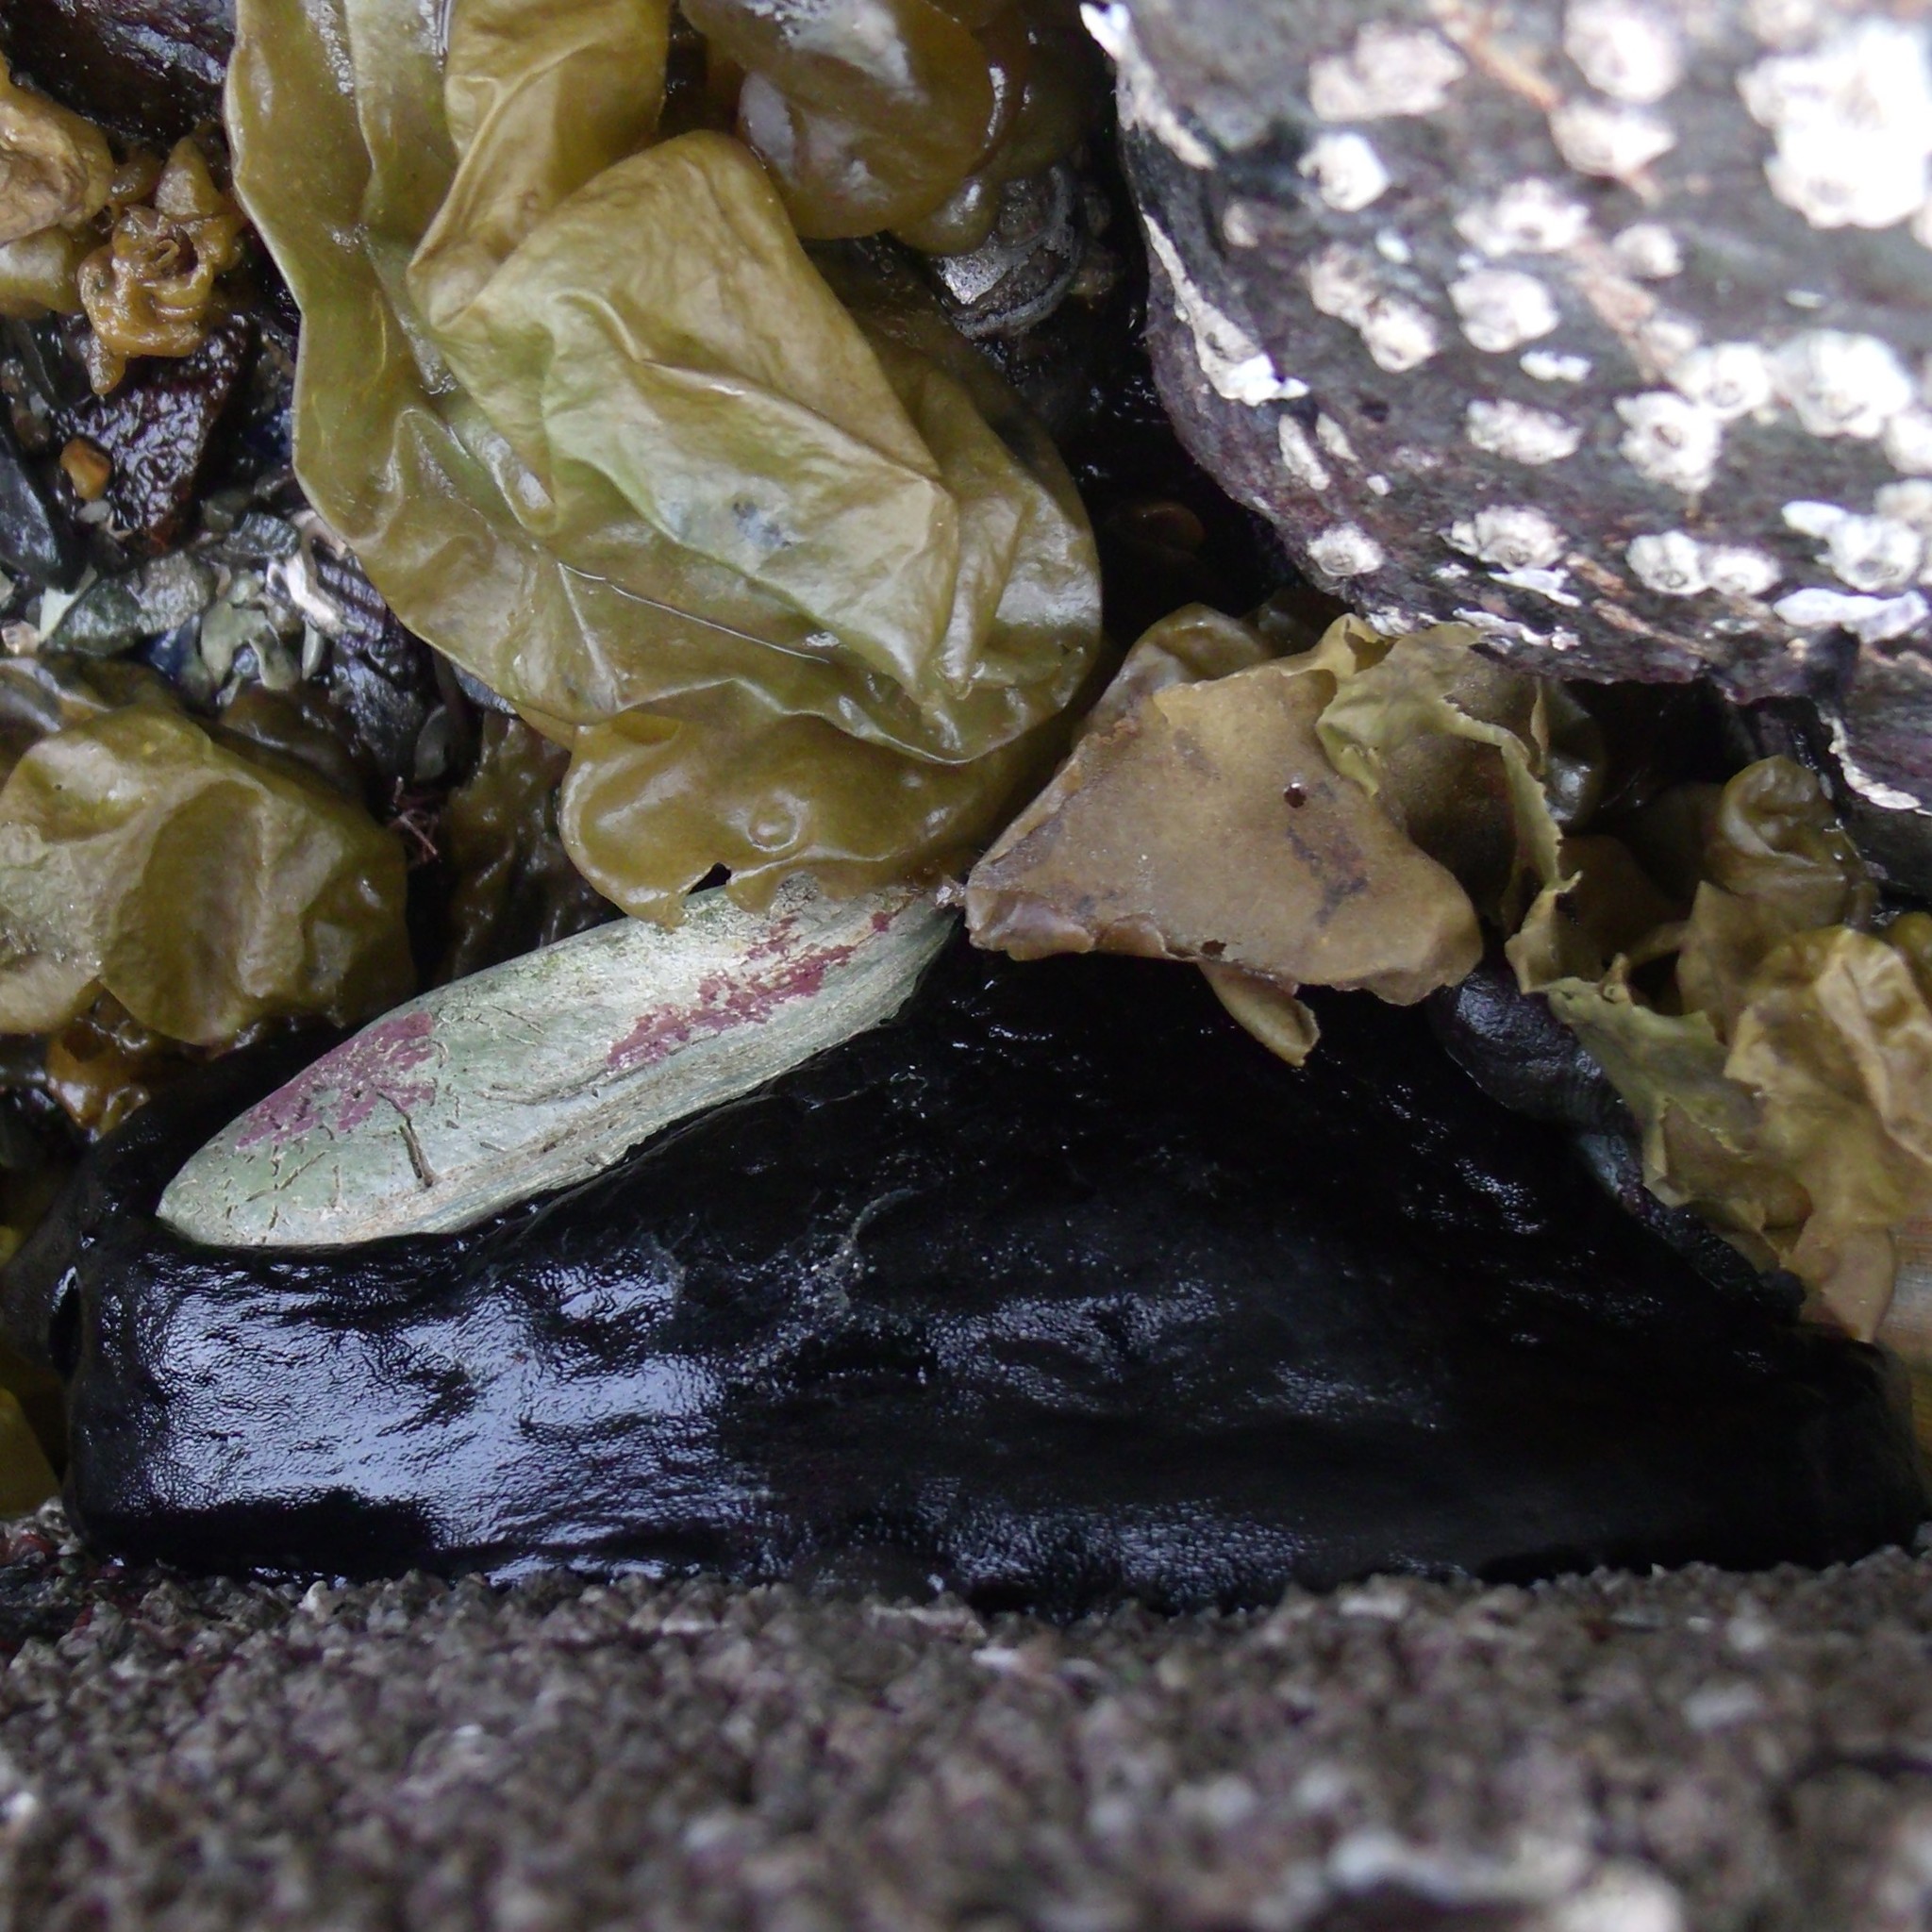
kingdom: Animalia
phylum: Mollusca
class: Gastropoda
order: Lepetellida
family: Fissurellidae
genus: Scutus
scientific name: Scutus breviculus
